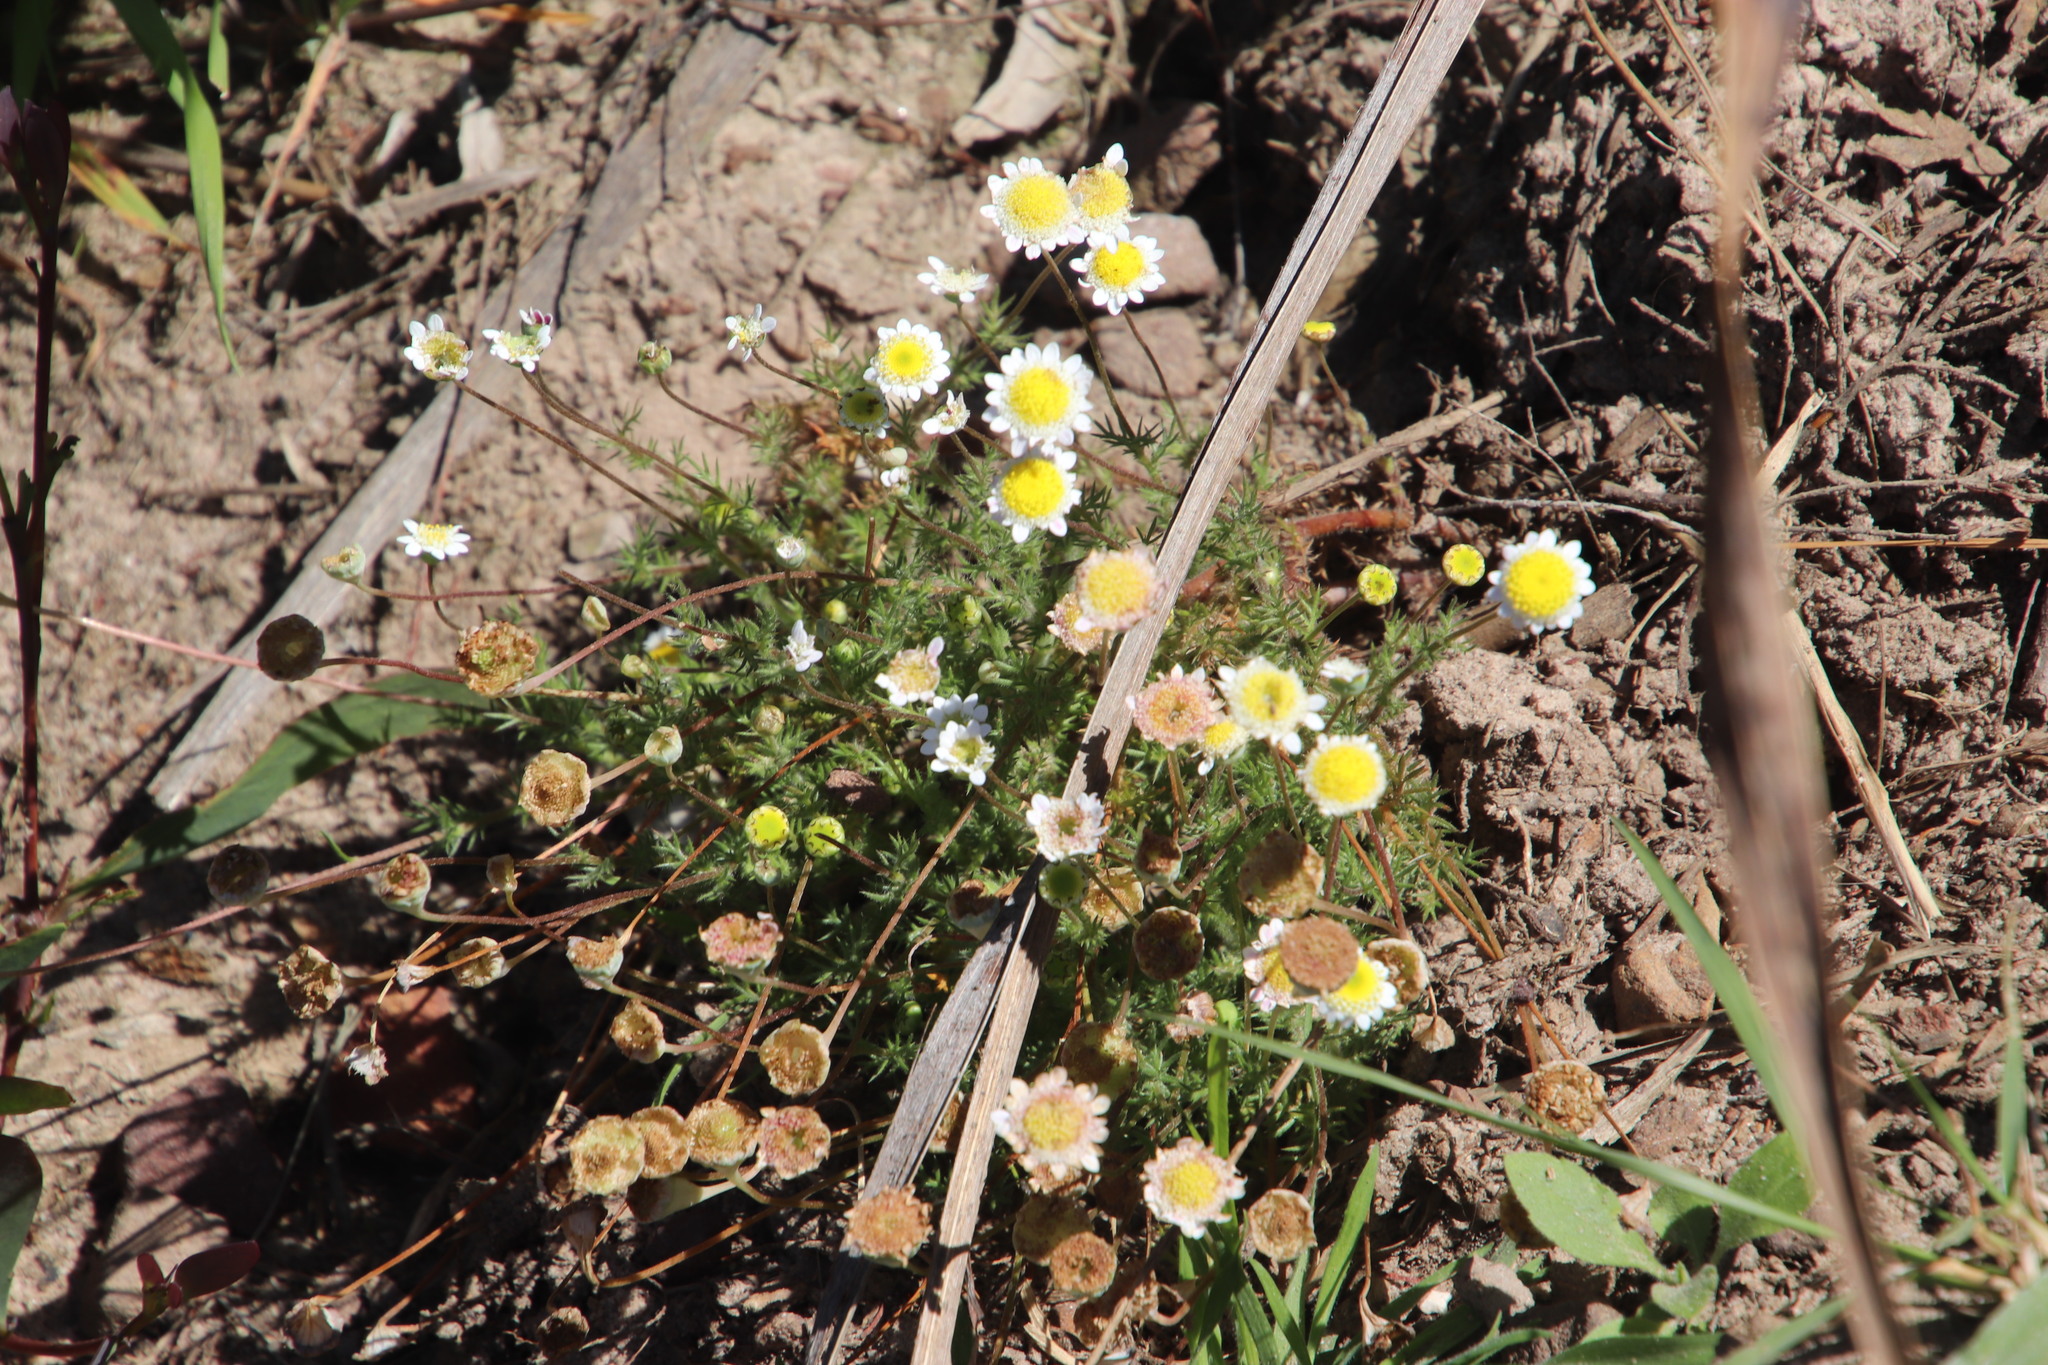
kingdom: Plantae
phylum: Tracheophyta
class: Magnoliopsida
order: Asterales
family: Asteraceae
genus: Cotula
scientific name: Cotula turbinata
